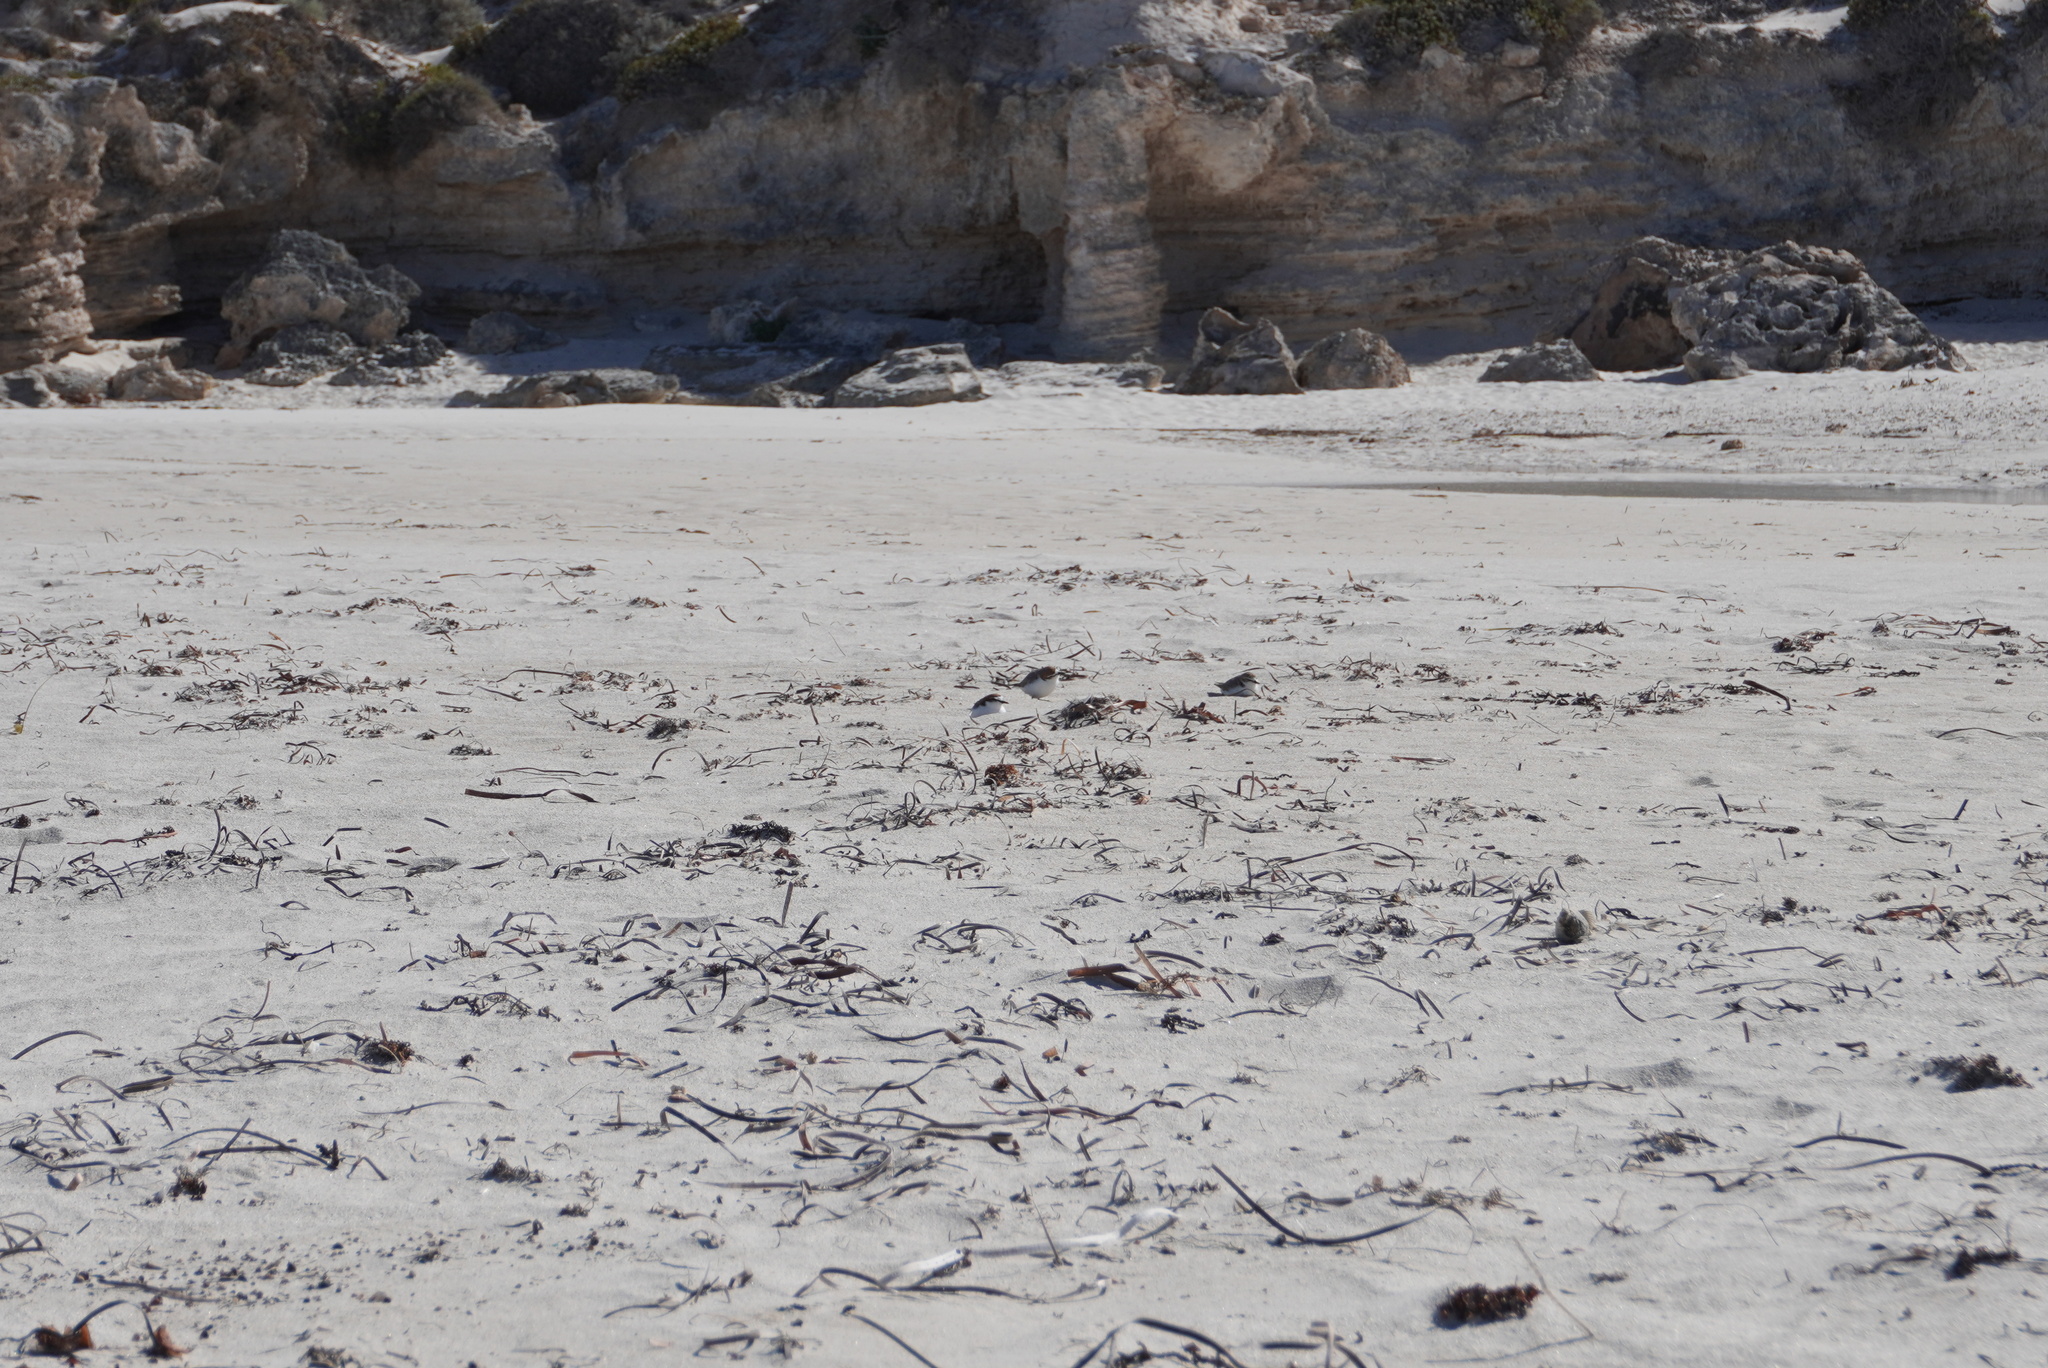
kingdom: Animalia
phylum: Chordata
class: Aves
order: Charadriiformes
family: Charadriidae
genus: Anarhynchus
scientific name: Anarhynchus
